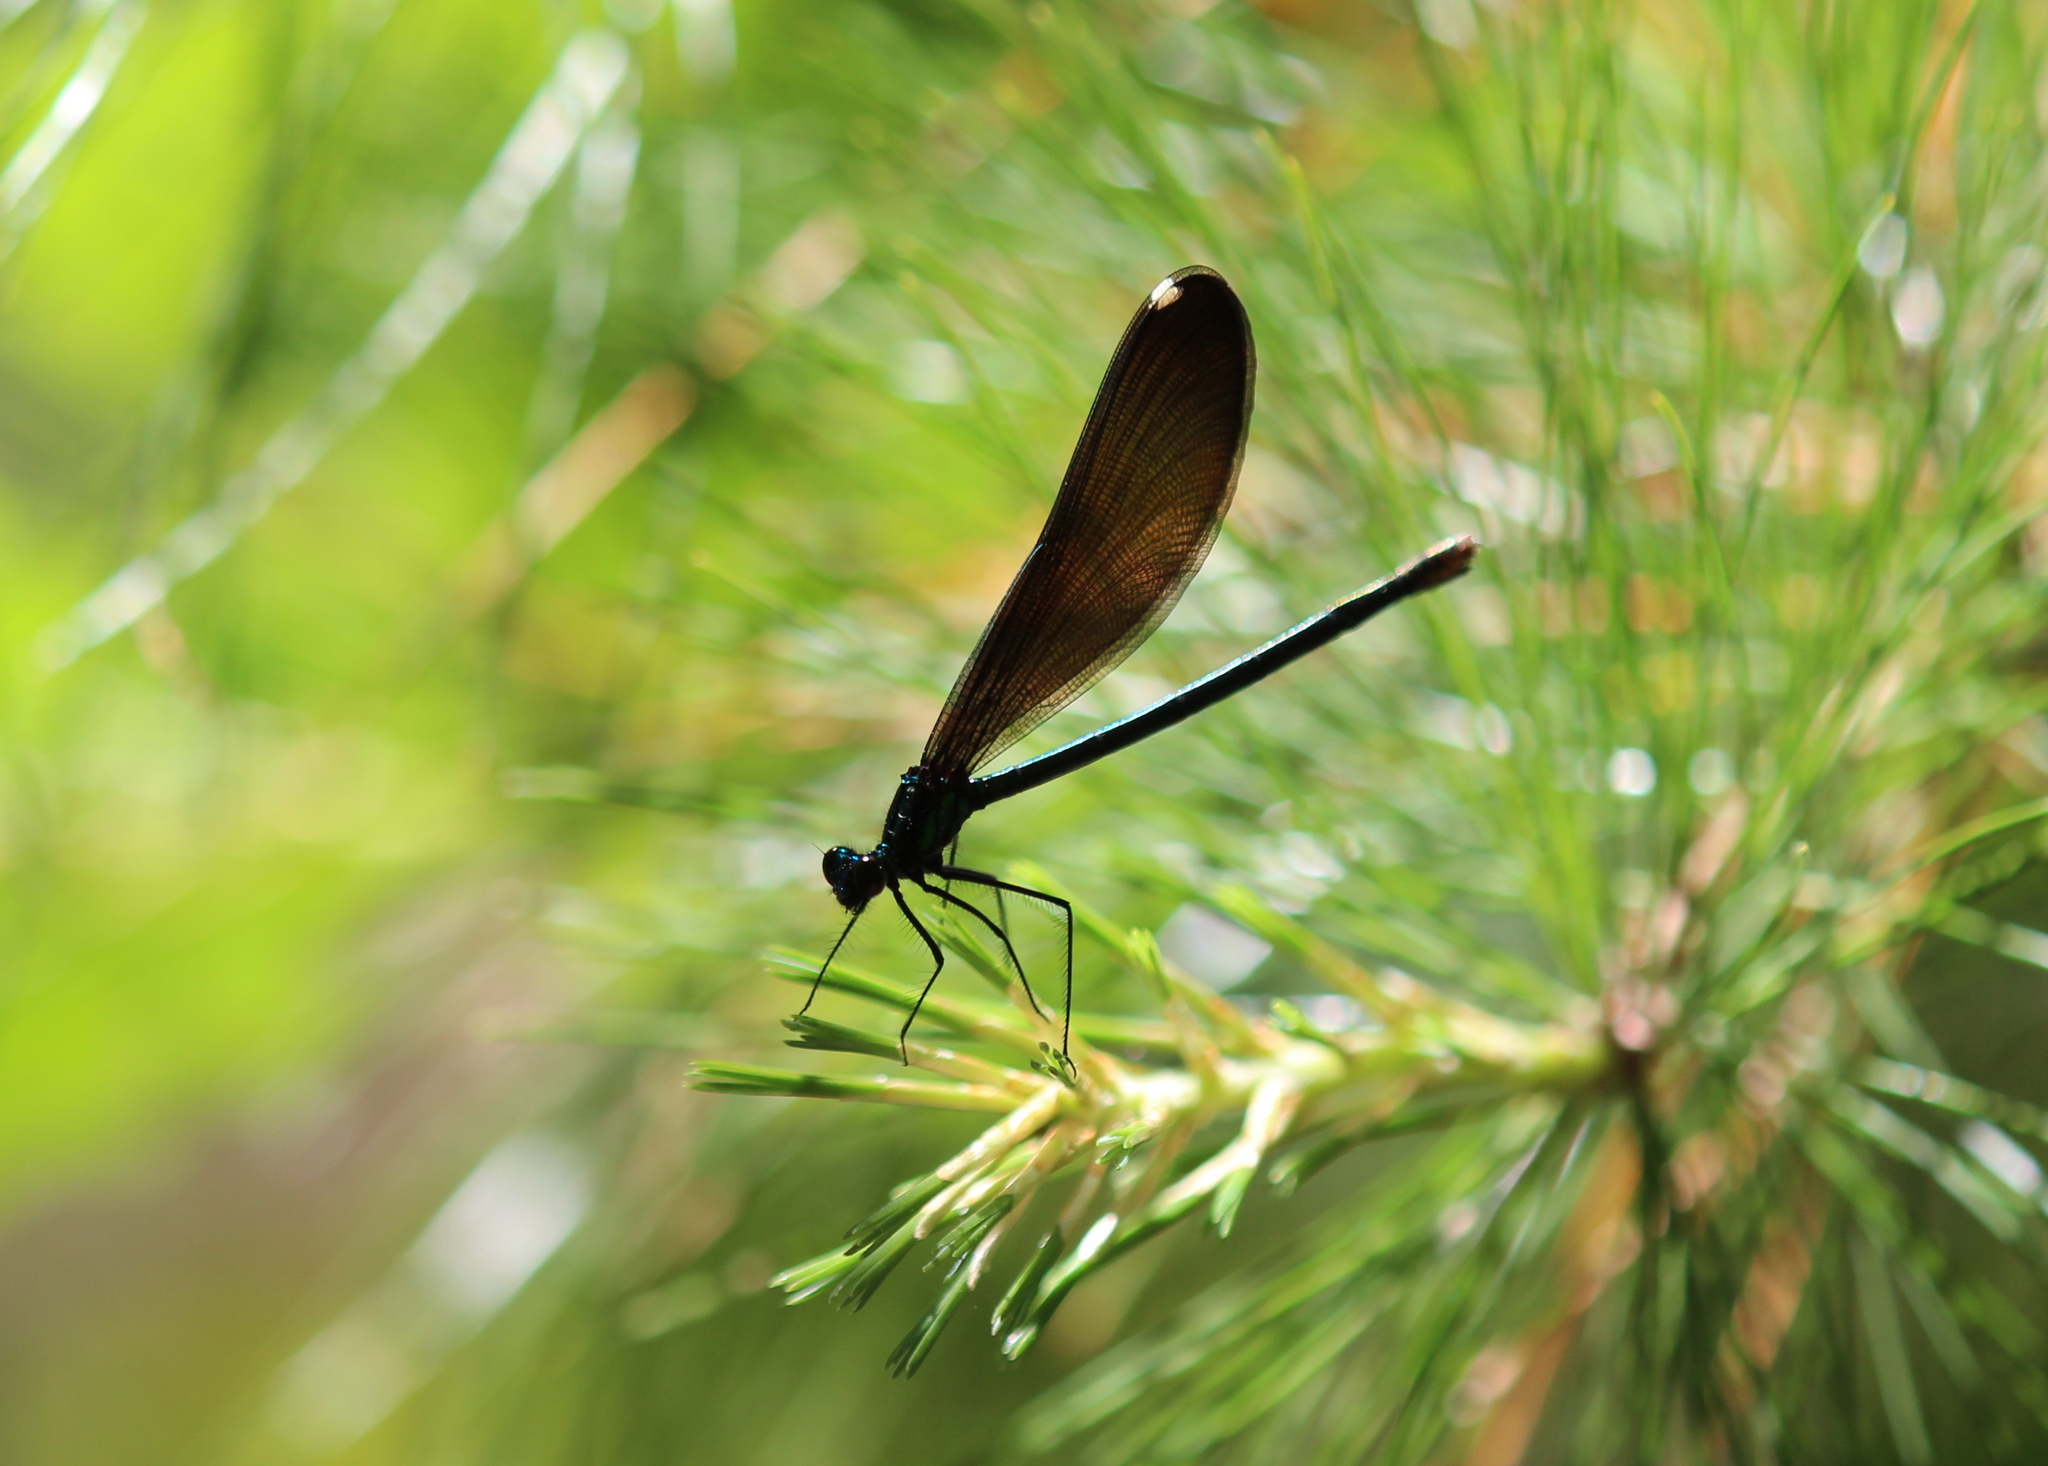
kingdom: Animalia
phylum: Arthropoda
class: Insecta
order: Odonata
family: Calopterygidae
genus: Calopteryx
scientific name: Calopteryx maculata
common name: Ebony jewelwing
